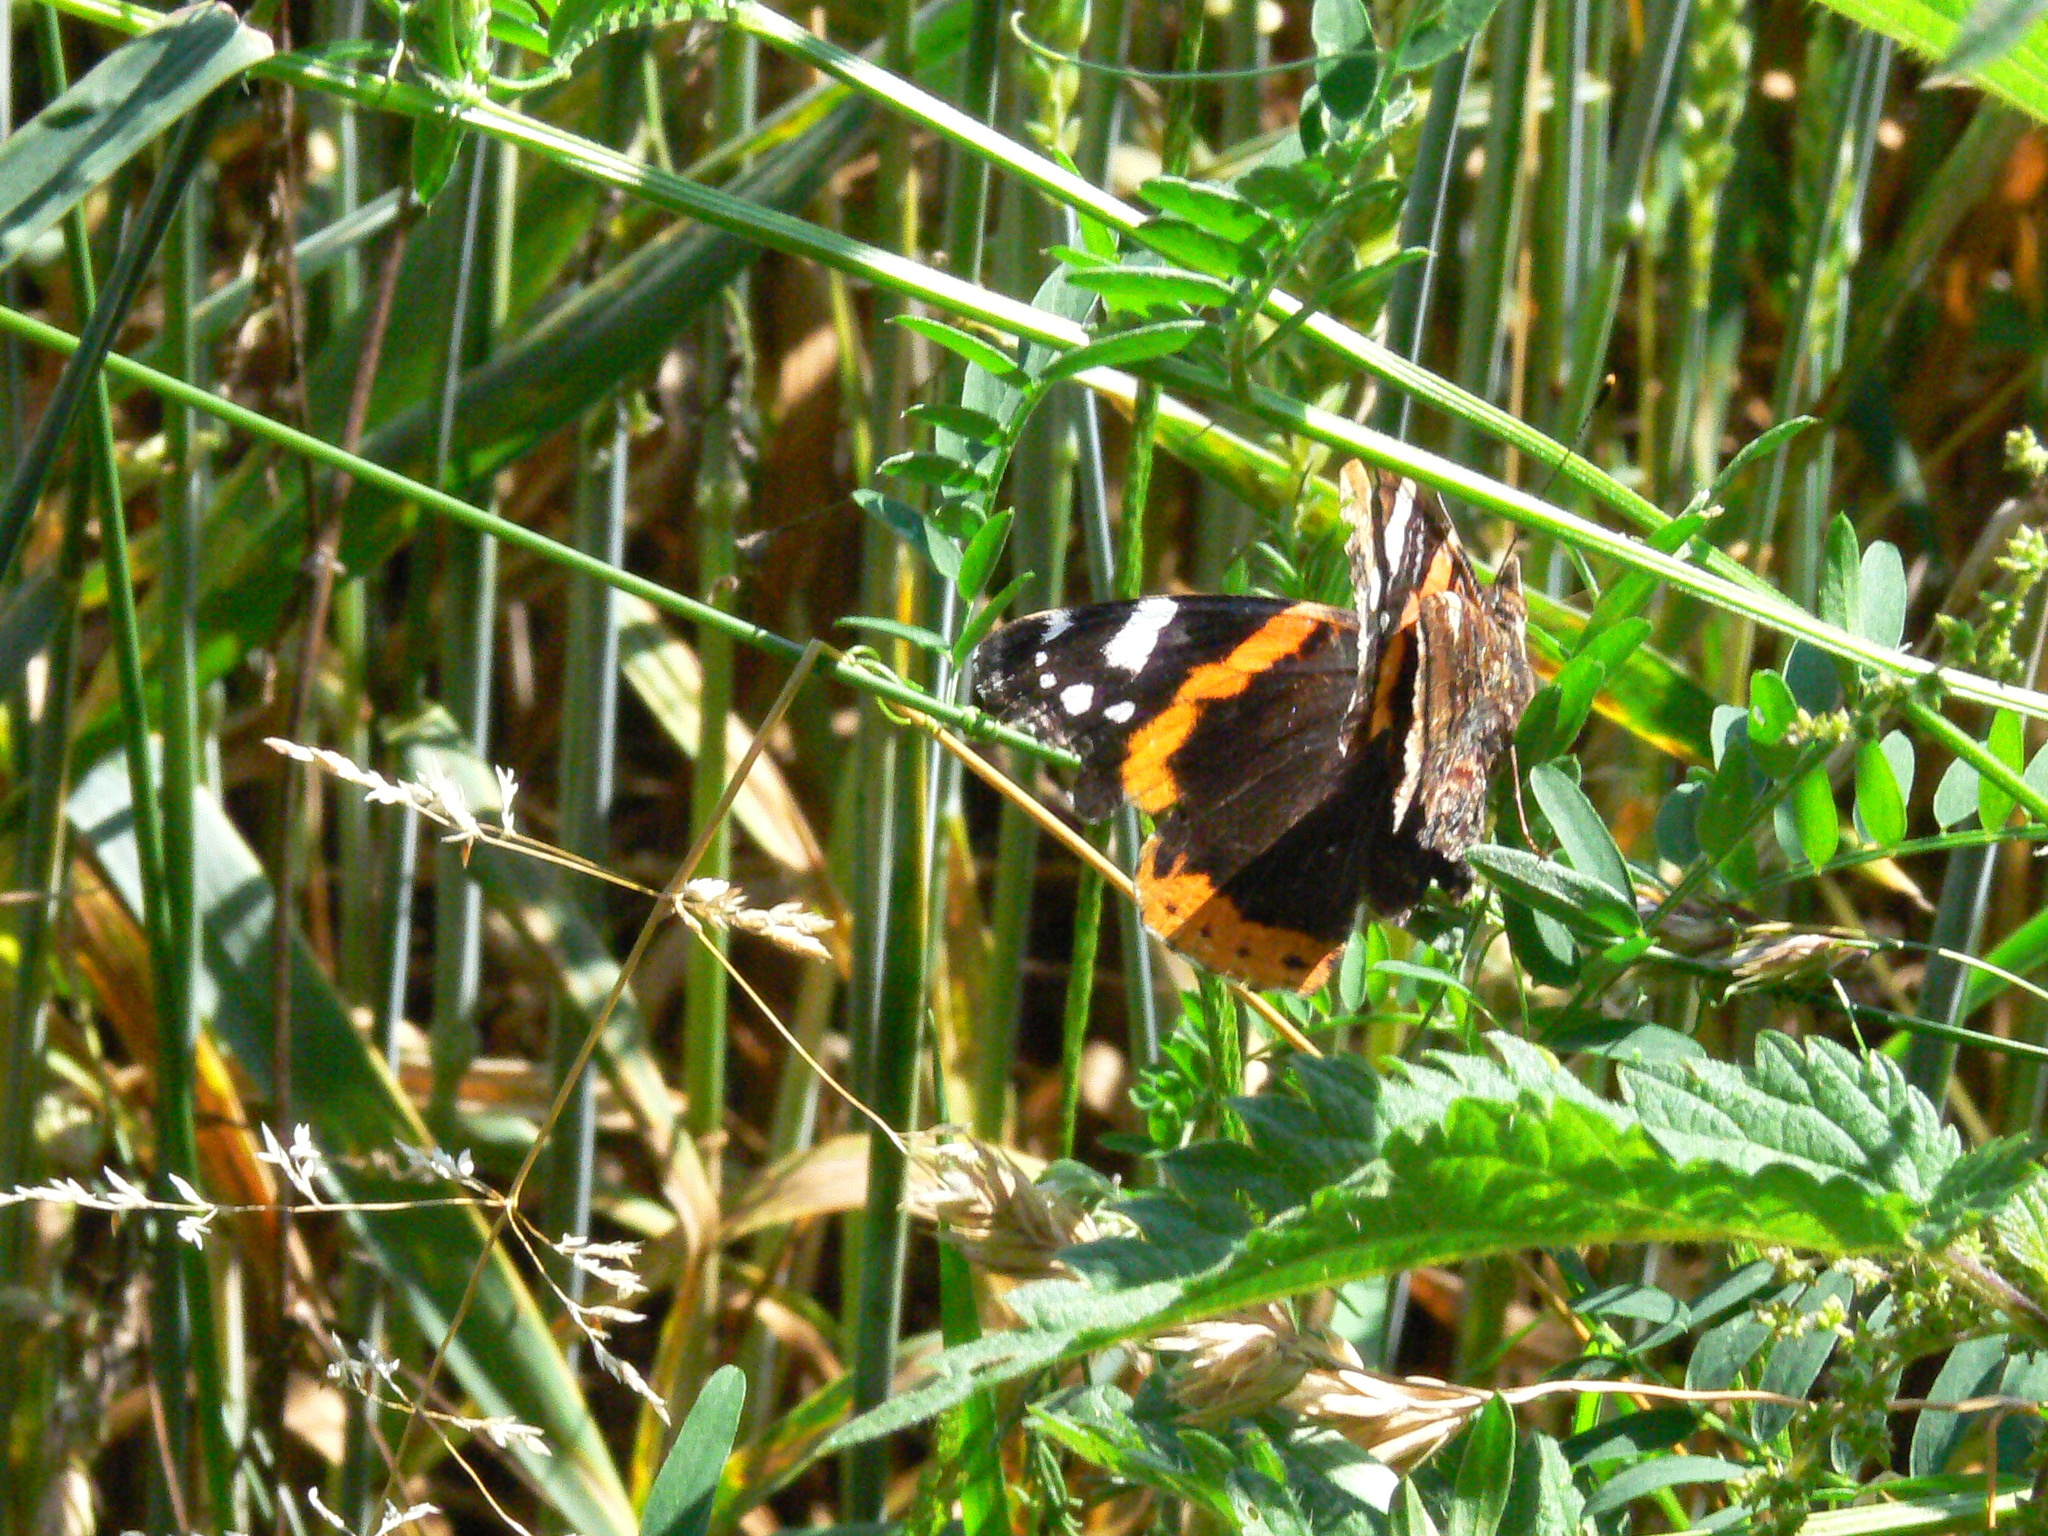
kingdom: Animalia
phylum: Arthropoda
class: Insecta
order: Lepidoptera
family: Nymphalidae
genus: Vanessa
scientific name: Vanessa atalanta
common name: Red admiral
